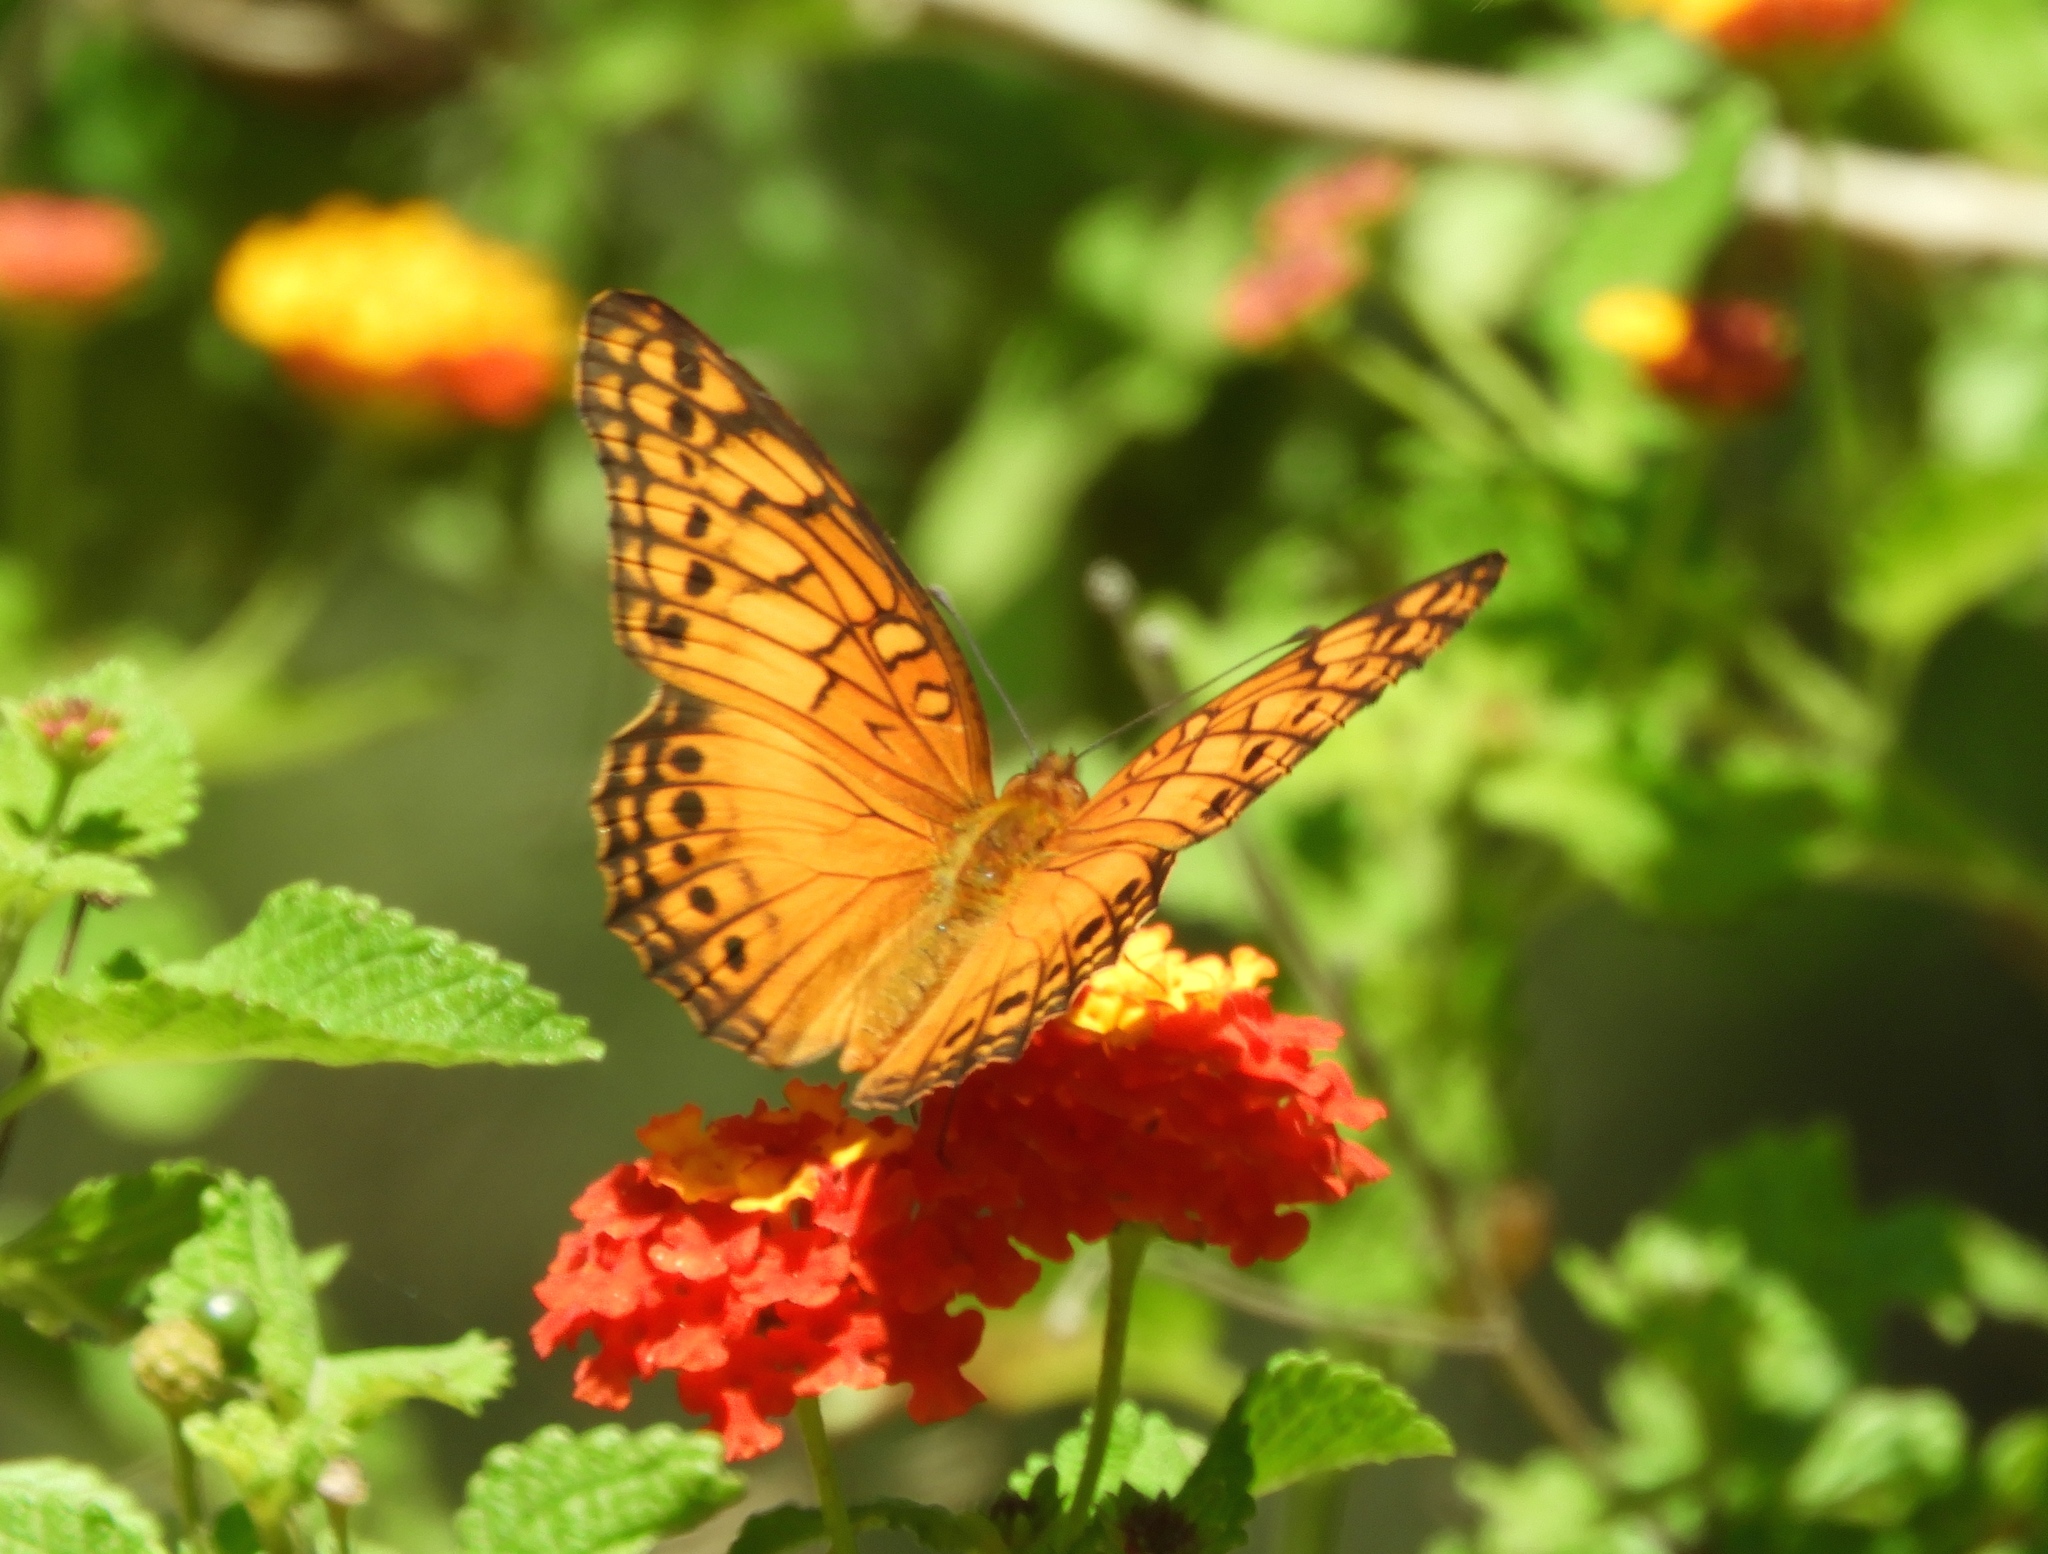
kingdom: Animalia
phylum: Arthropoda
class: Insecta
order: Lepidoptera
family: Nymphalidae
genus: Euptoieta
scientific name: Euptoieta hegesia
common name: Mexican fritillary
